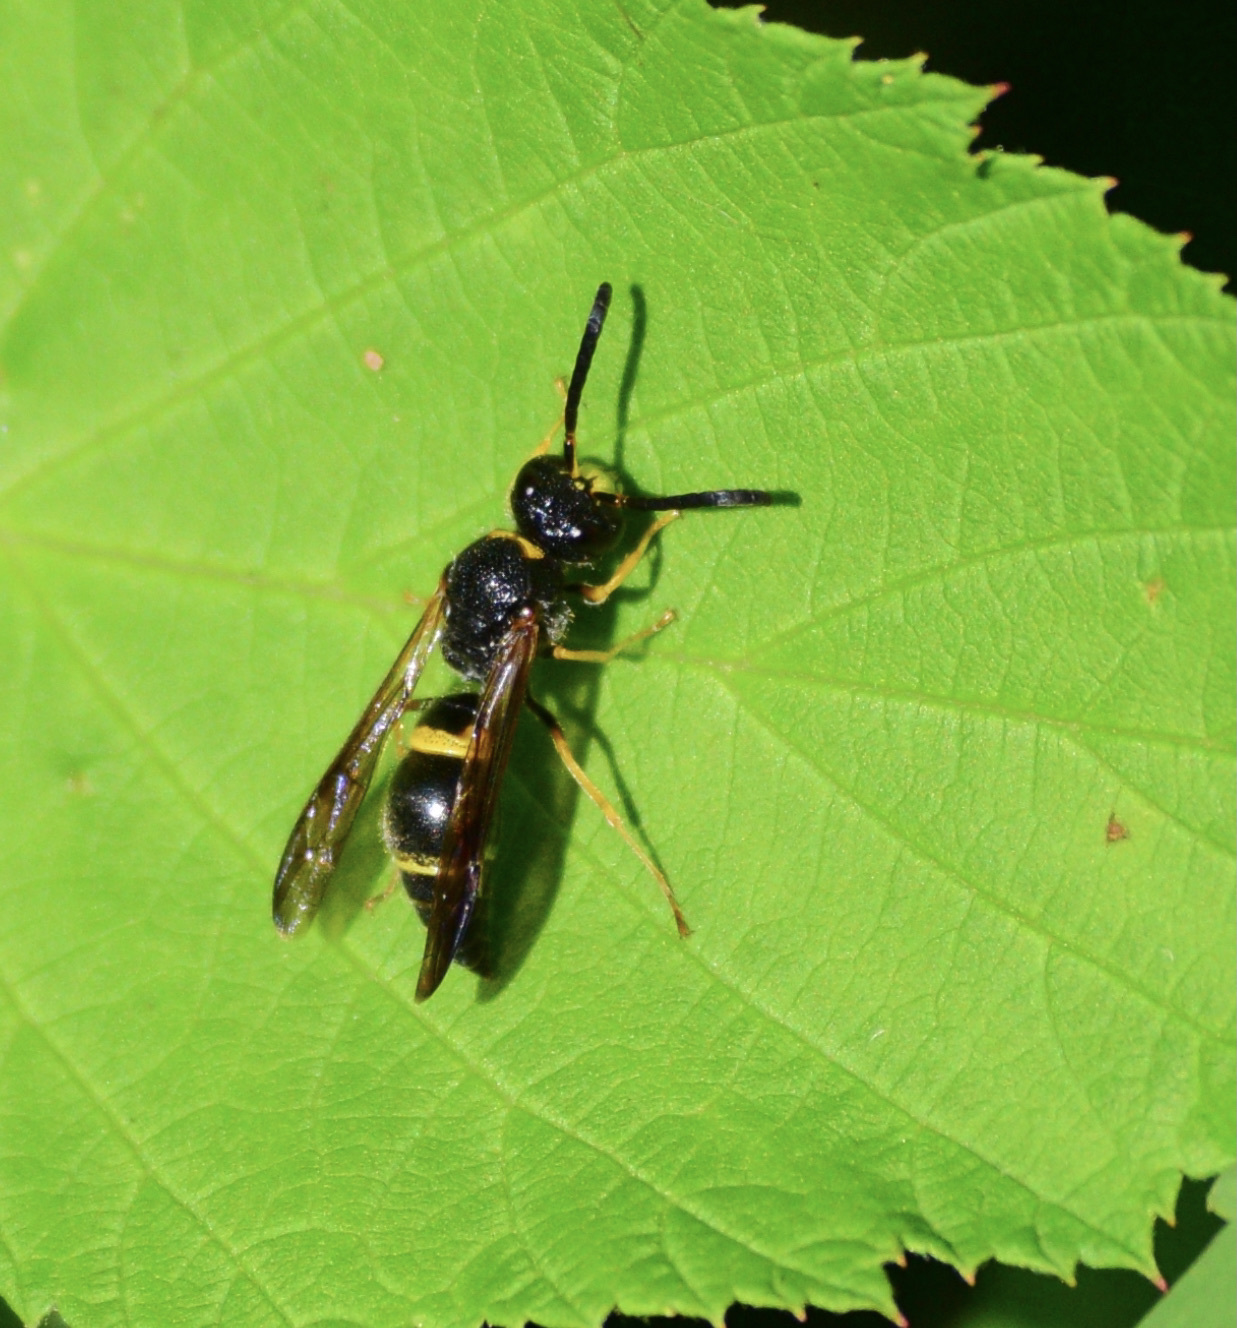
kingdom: Animalia
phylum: Arthropoda
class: Insecta
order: Hymenoptera
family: Vespidae
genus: Ancistrocerus
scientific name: Ancistrocerus unifasciatus
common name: One-banded mason wasp
